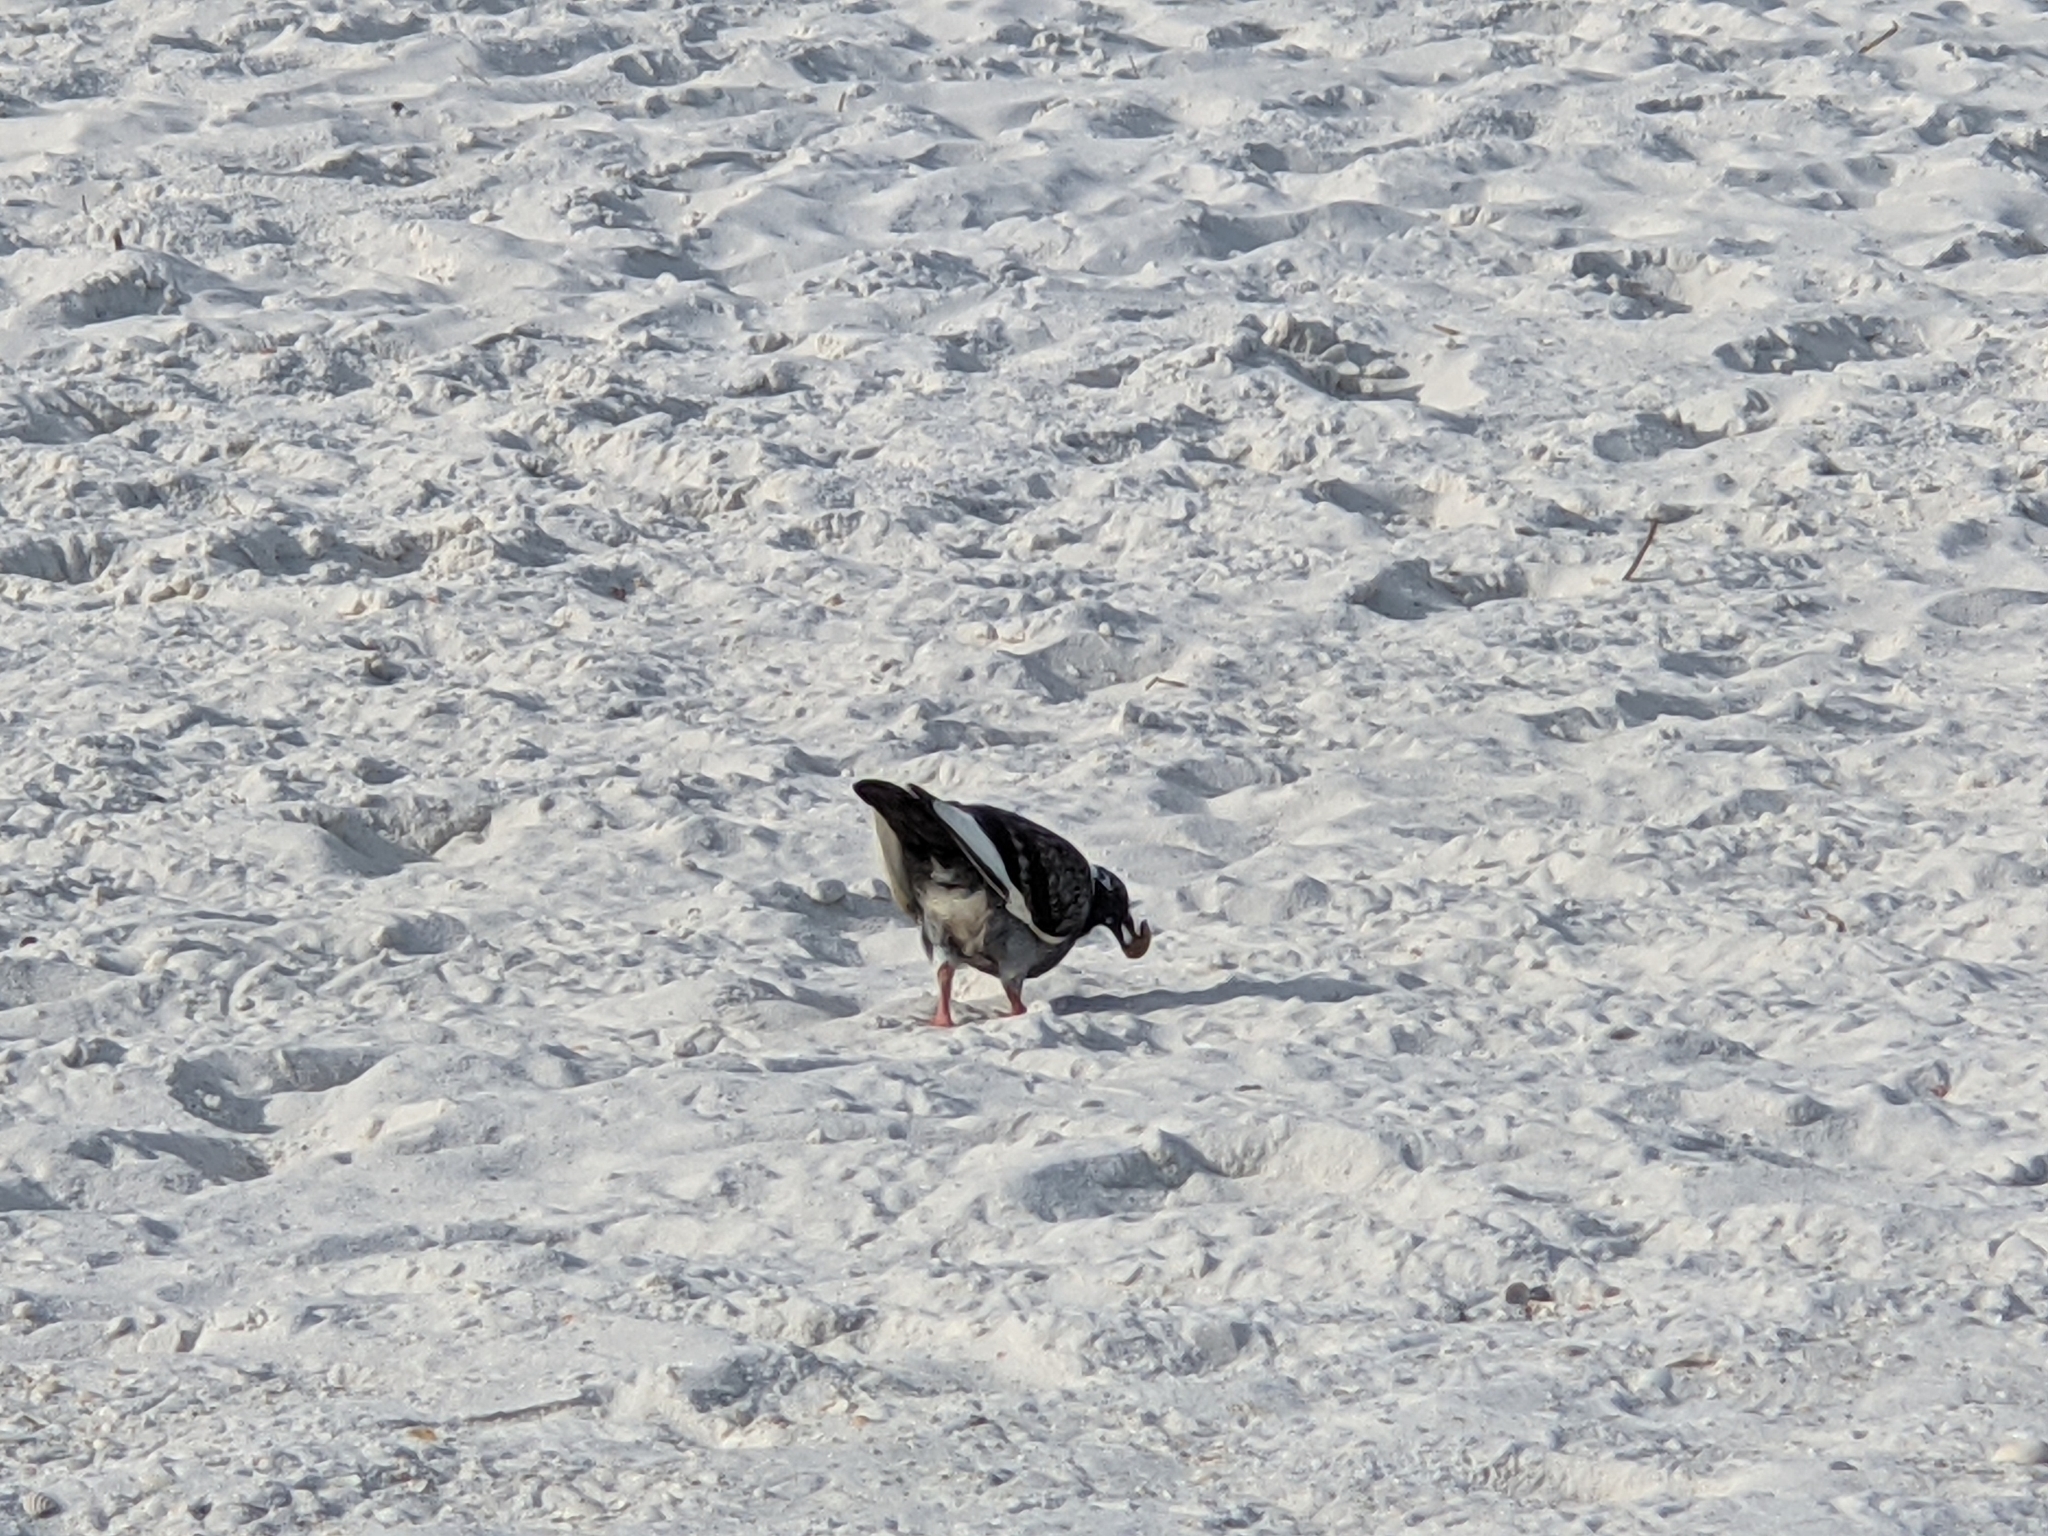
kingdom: Animalia
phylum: Chordata
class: Aves
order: Columbiformes
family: Columbidae
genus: Columba
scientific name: Columba livia
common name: Rock pigeon
